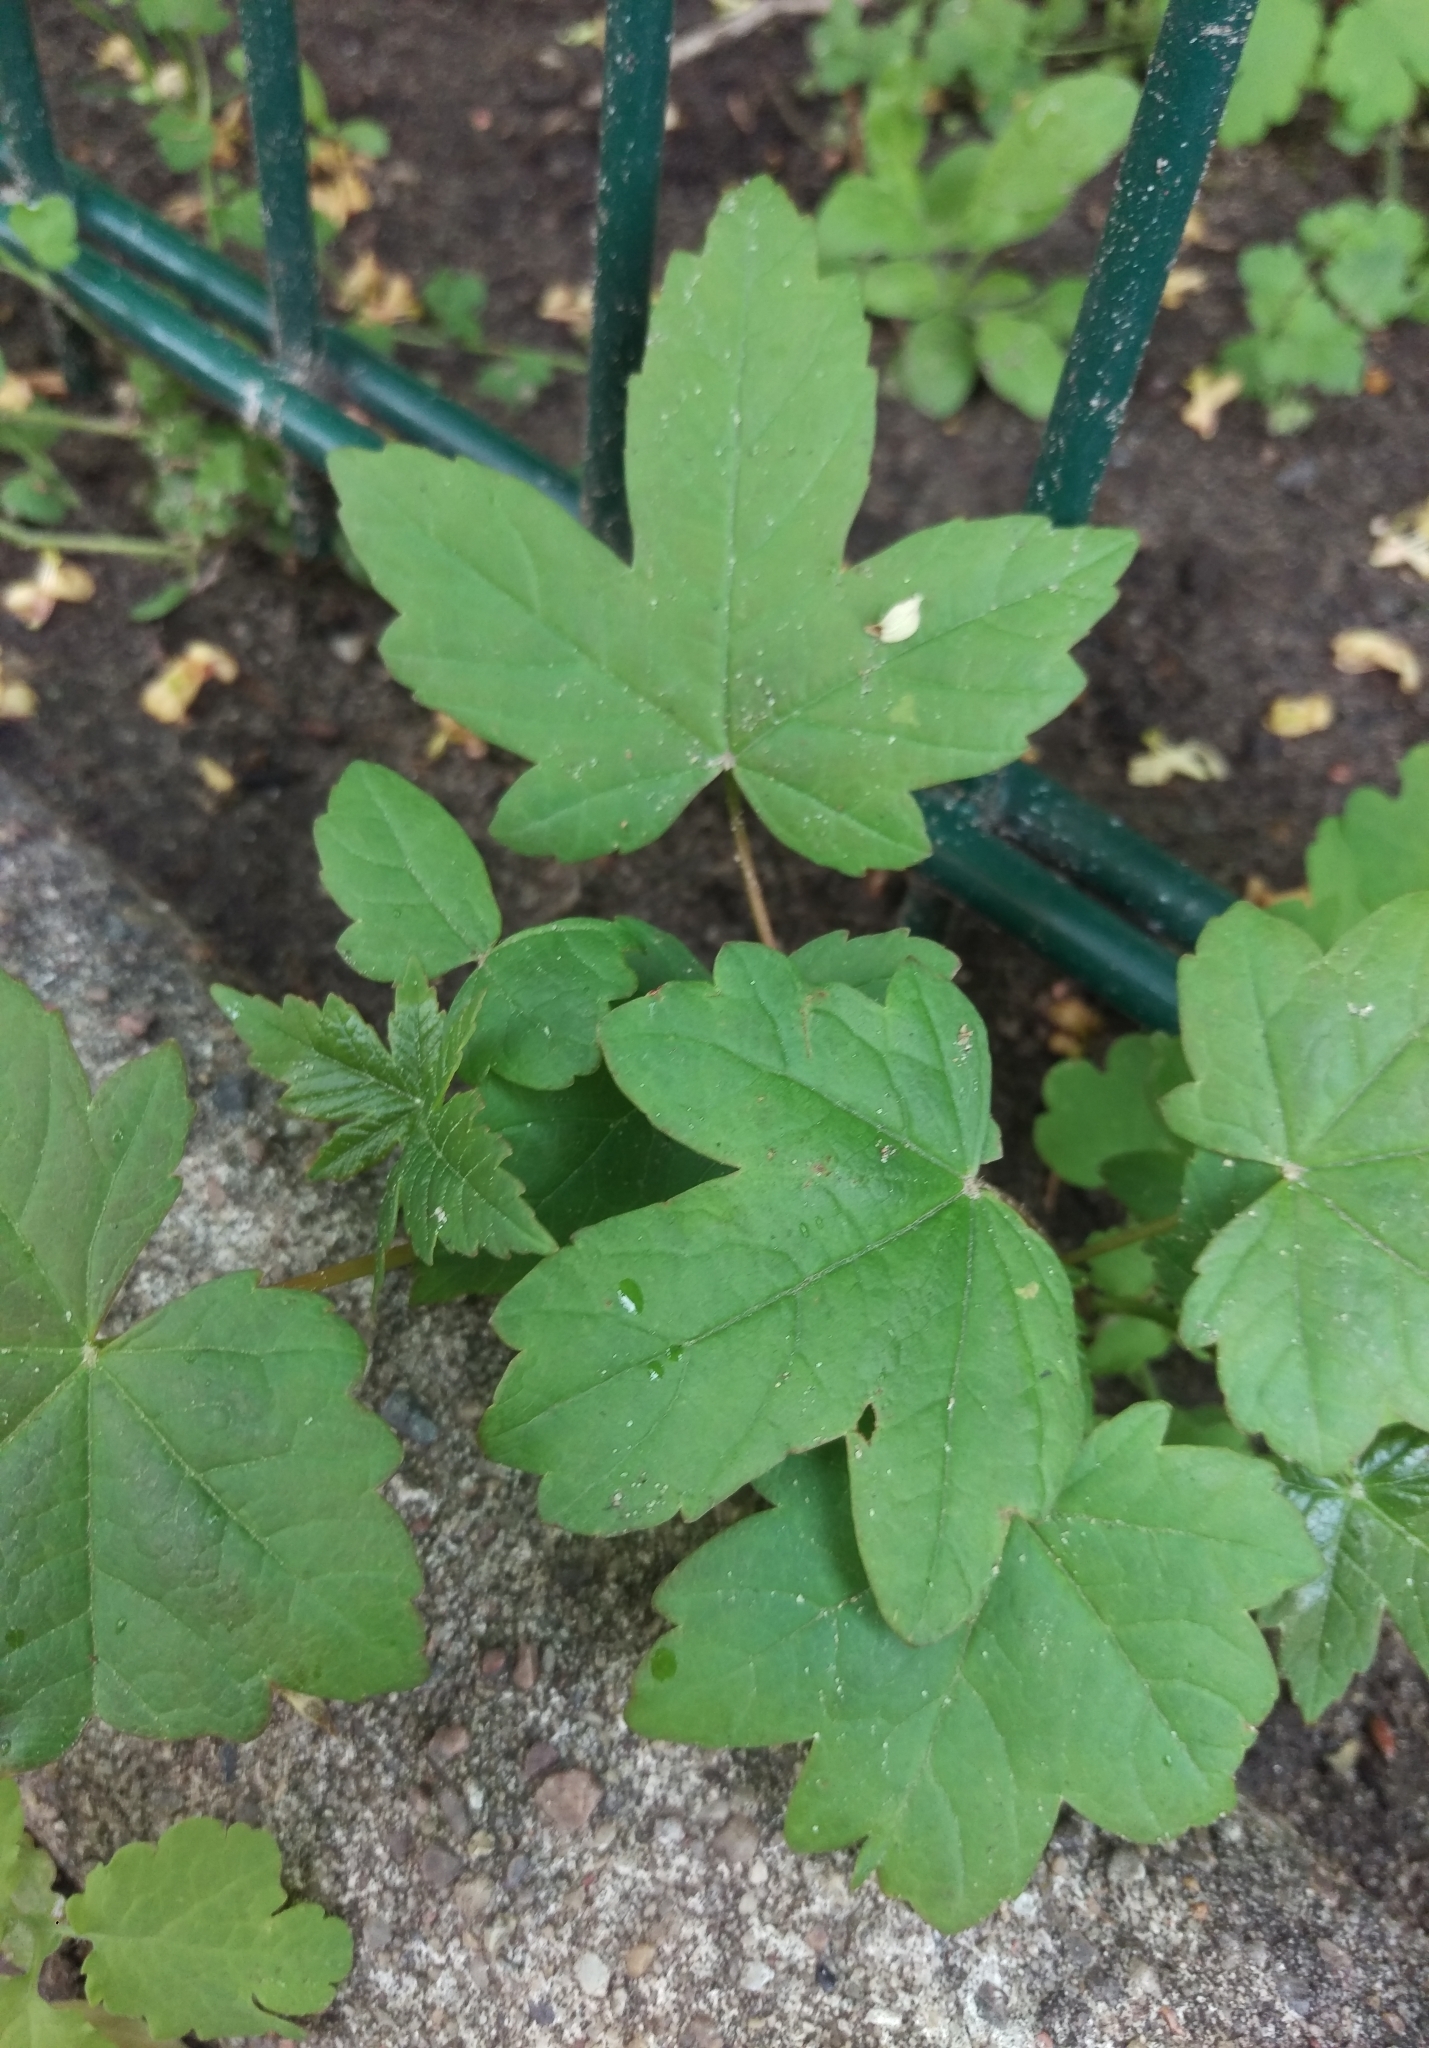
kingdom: Plantae
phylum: Tracheophyta
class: Magnoliopsida
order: Sapindales
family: Sapindaceae
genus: Acer
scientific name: Acer campestre
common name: Field maple
